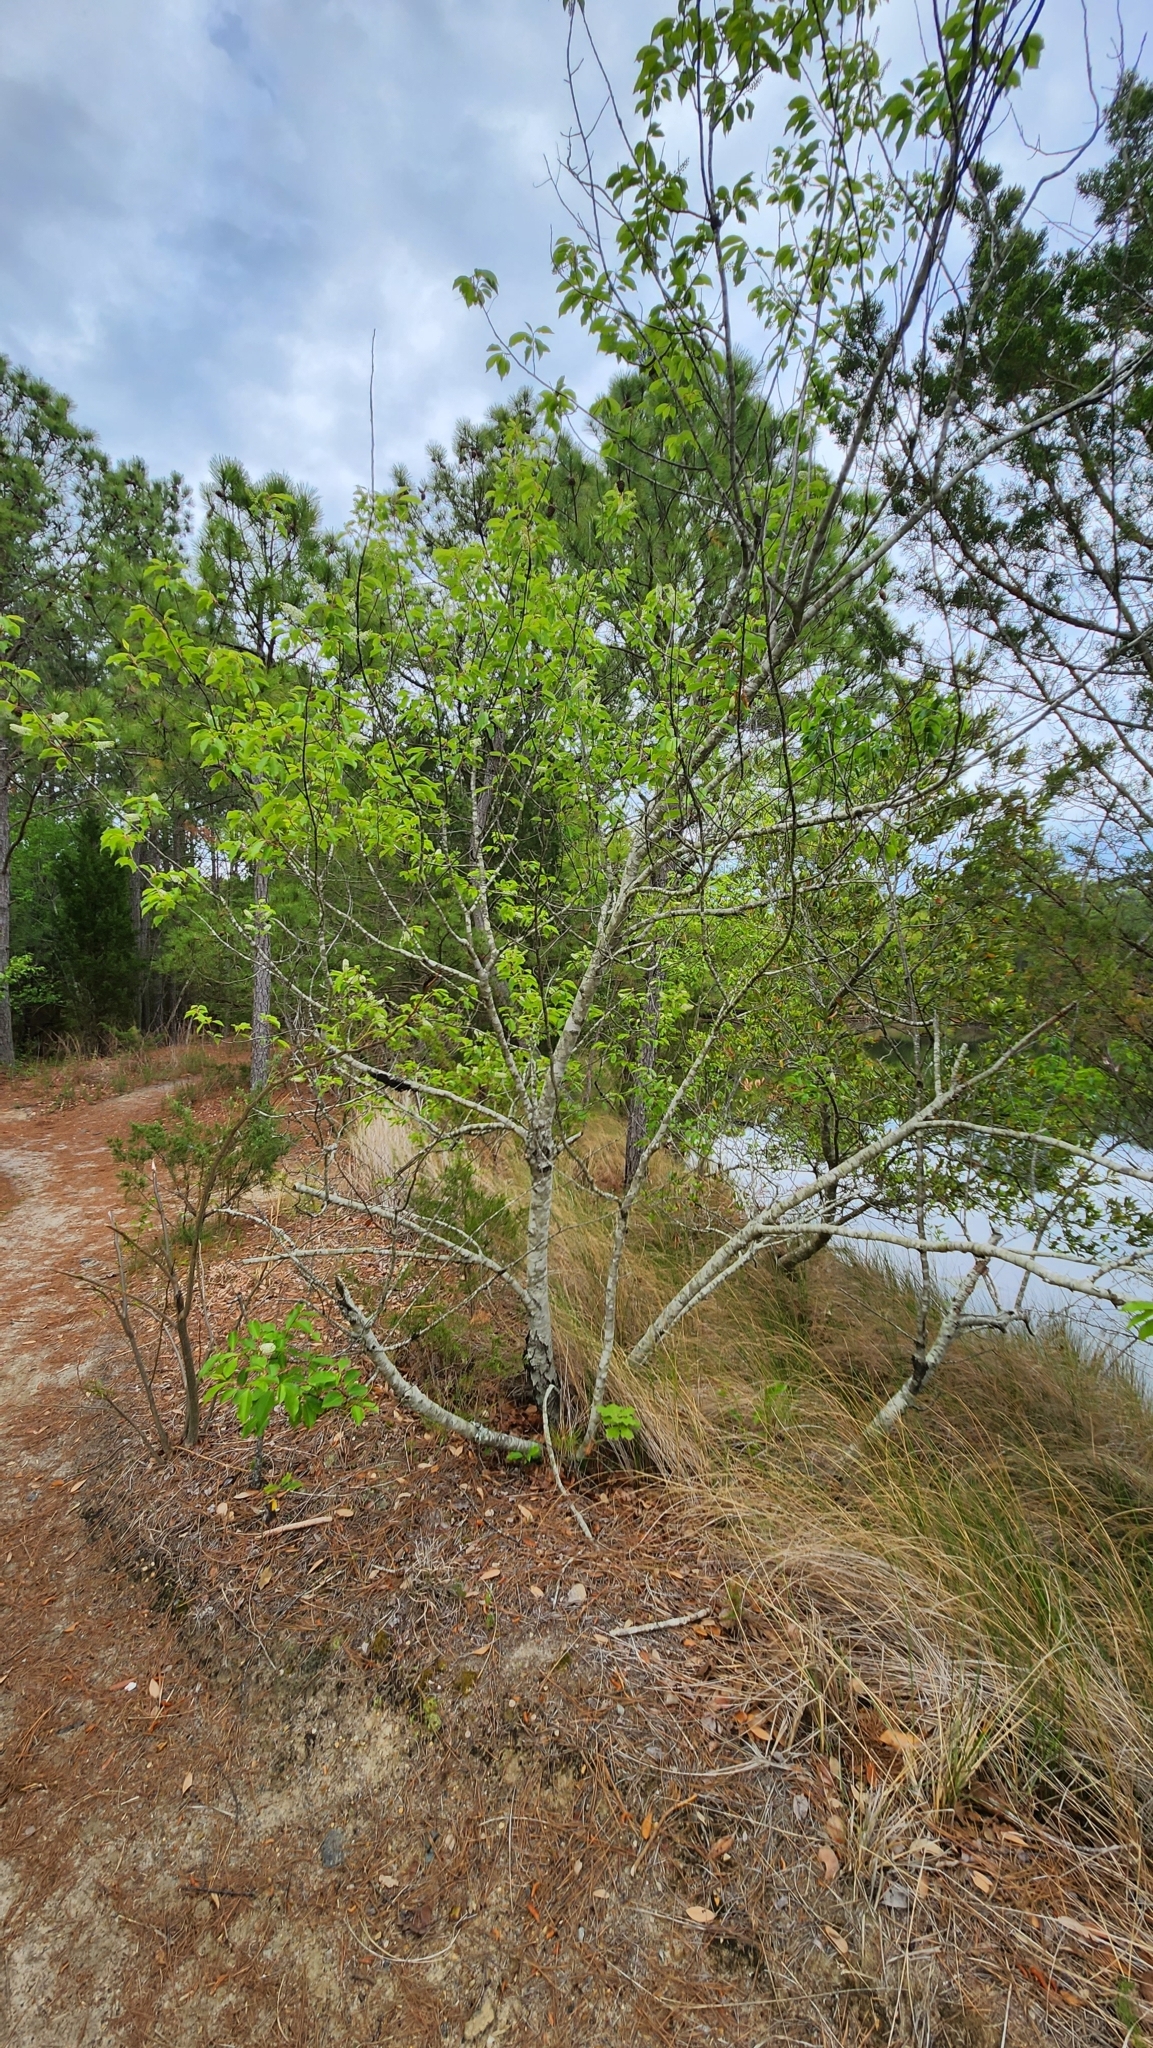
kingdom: Plantae
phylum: Tracheophyta
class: Magnoliopsida
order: Rosales
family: Rosaceae
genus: Prunus
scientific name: Prunus serotina
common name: Black cherry
